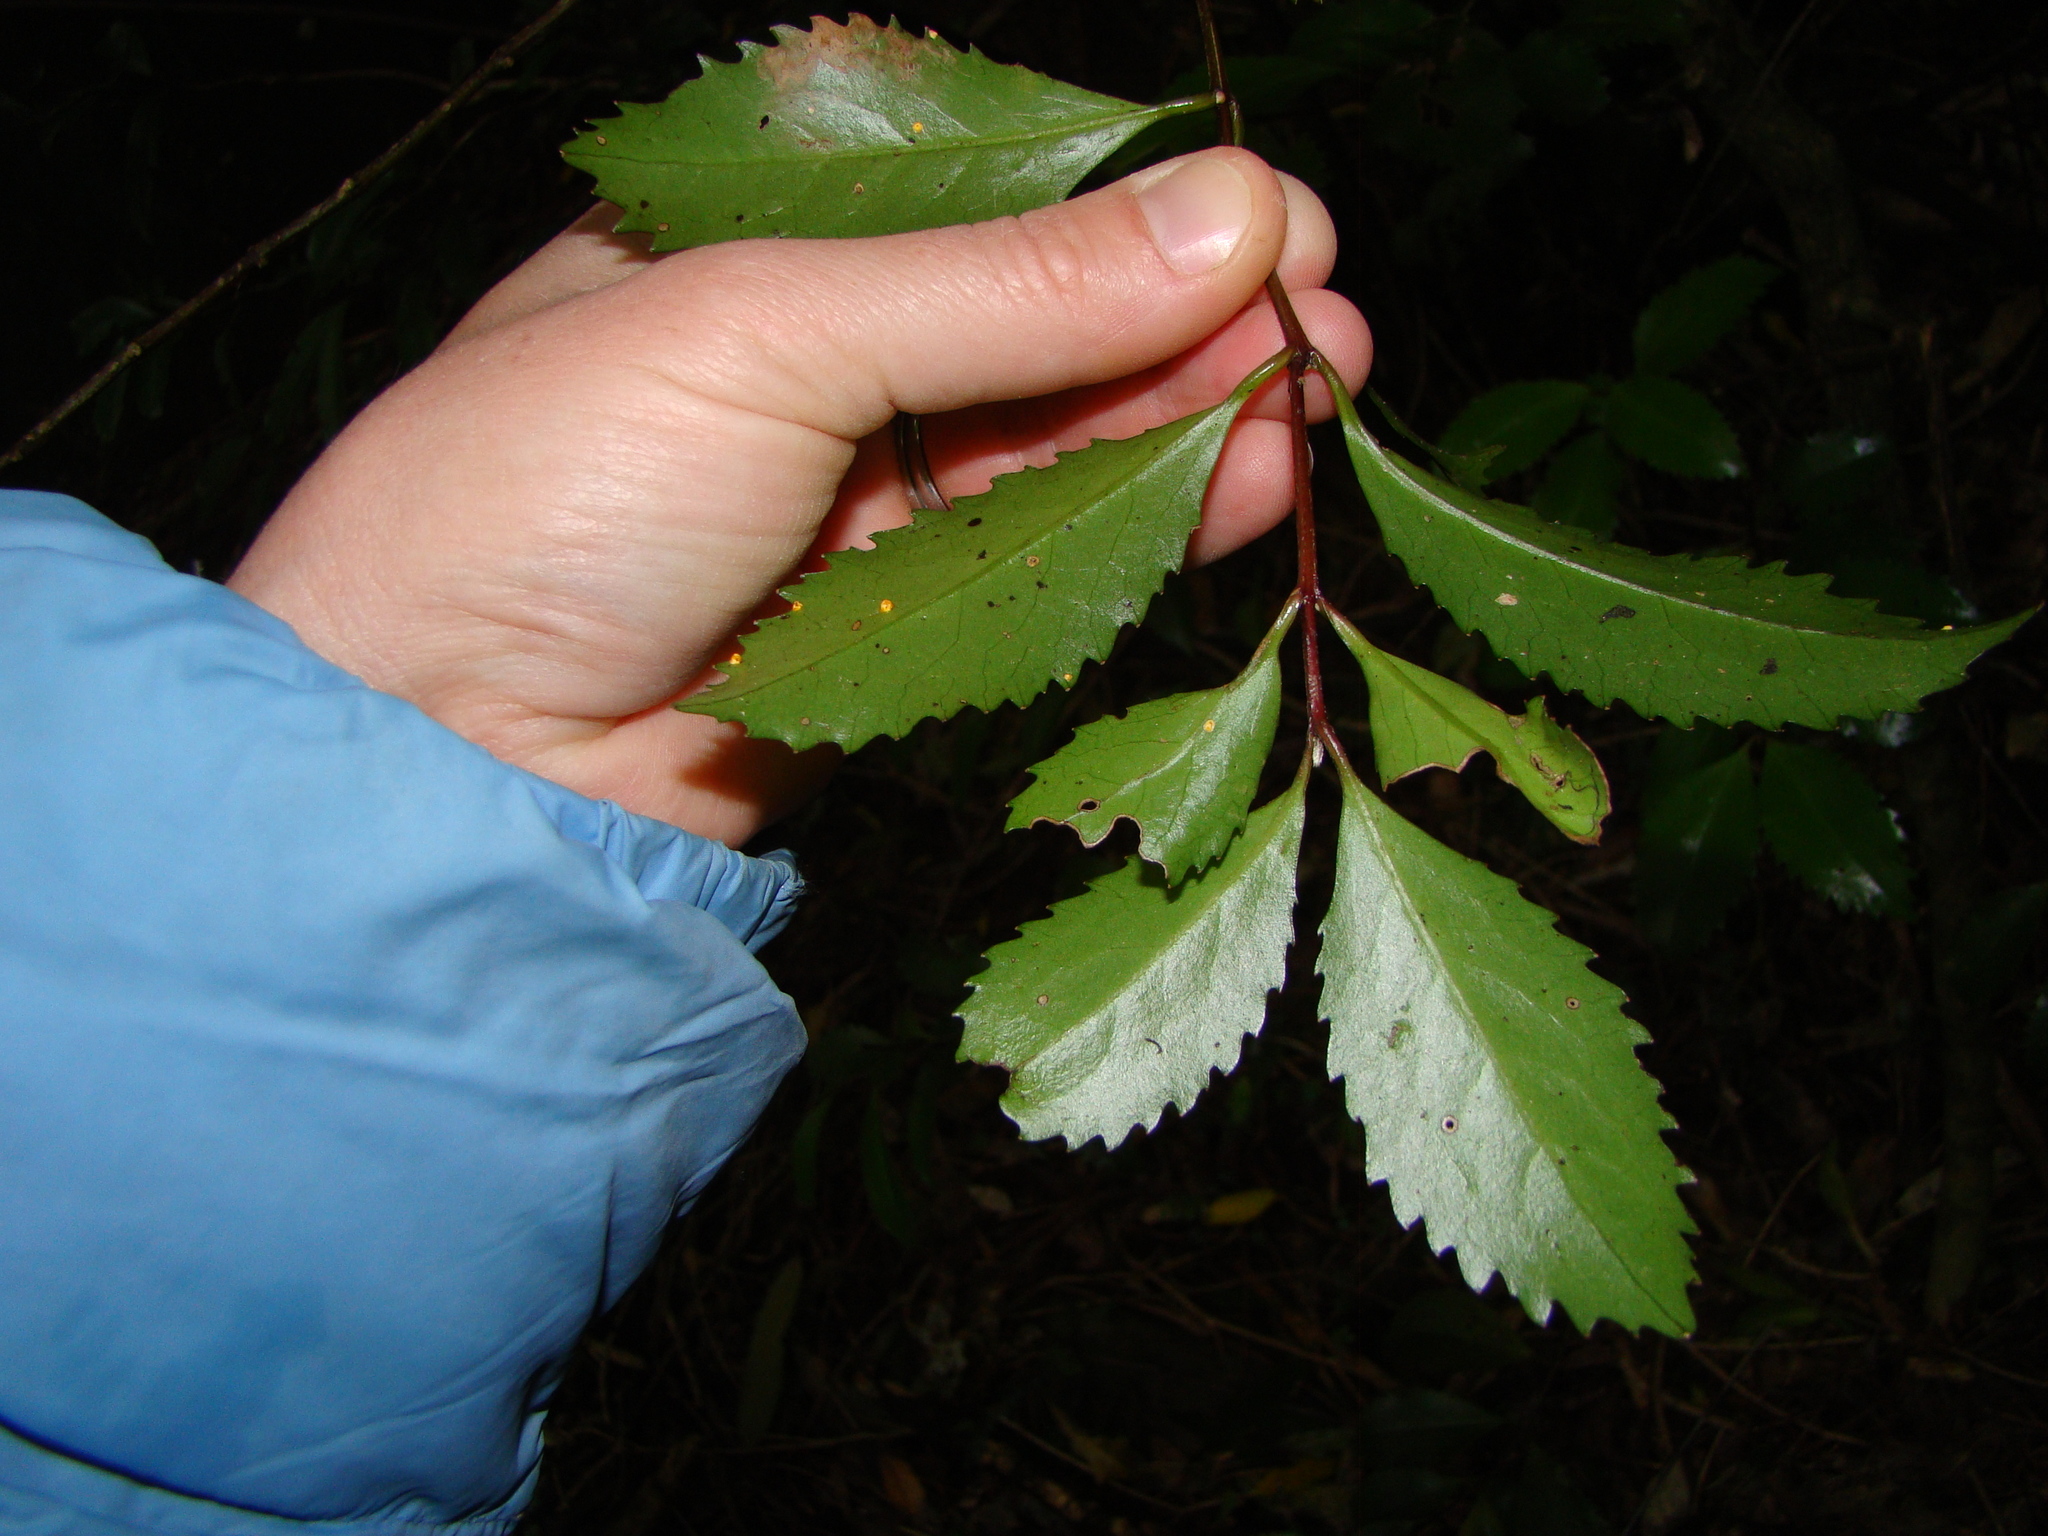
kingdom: Plantae
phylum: Tracheophyta
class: Magnoliopsida
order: Laurales
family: Atherospermataceae
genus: Laurelia
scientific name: Laurelia novae-zelandiae
